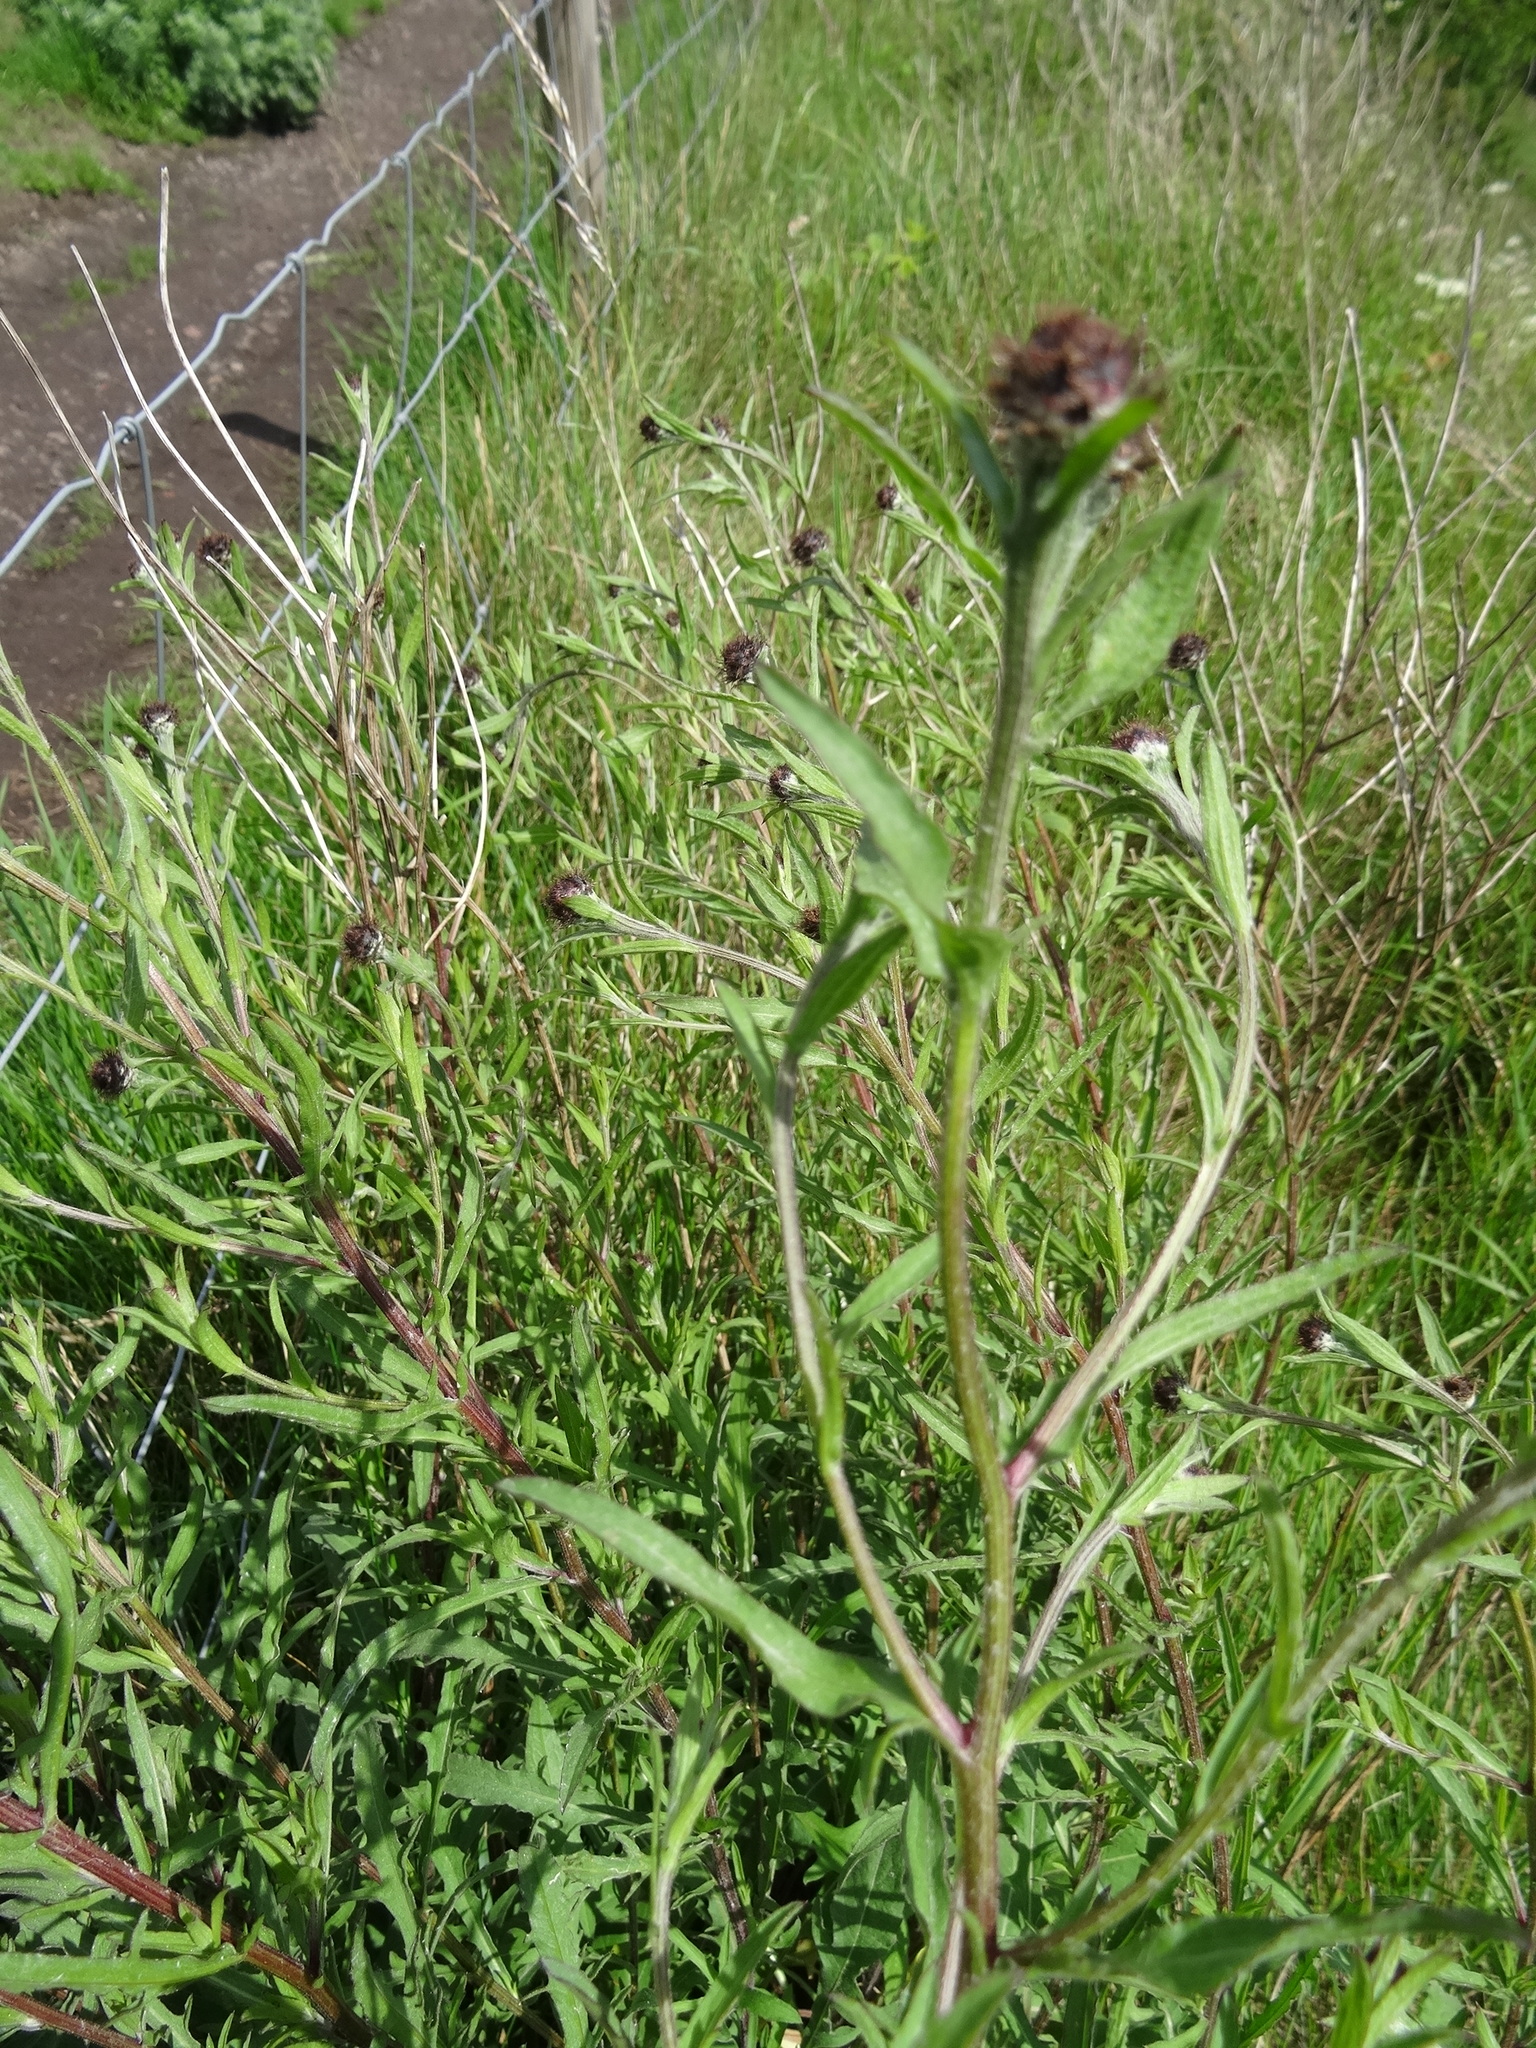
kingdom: Plantae
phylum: Tracheophyta
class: Magnoliopsida
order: Asterales
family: Asteraceae
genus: Centaurea
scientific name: Centaurea nigra
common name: Lesser knapweed
